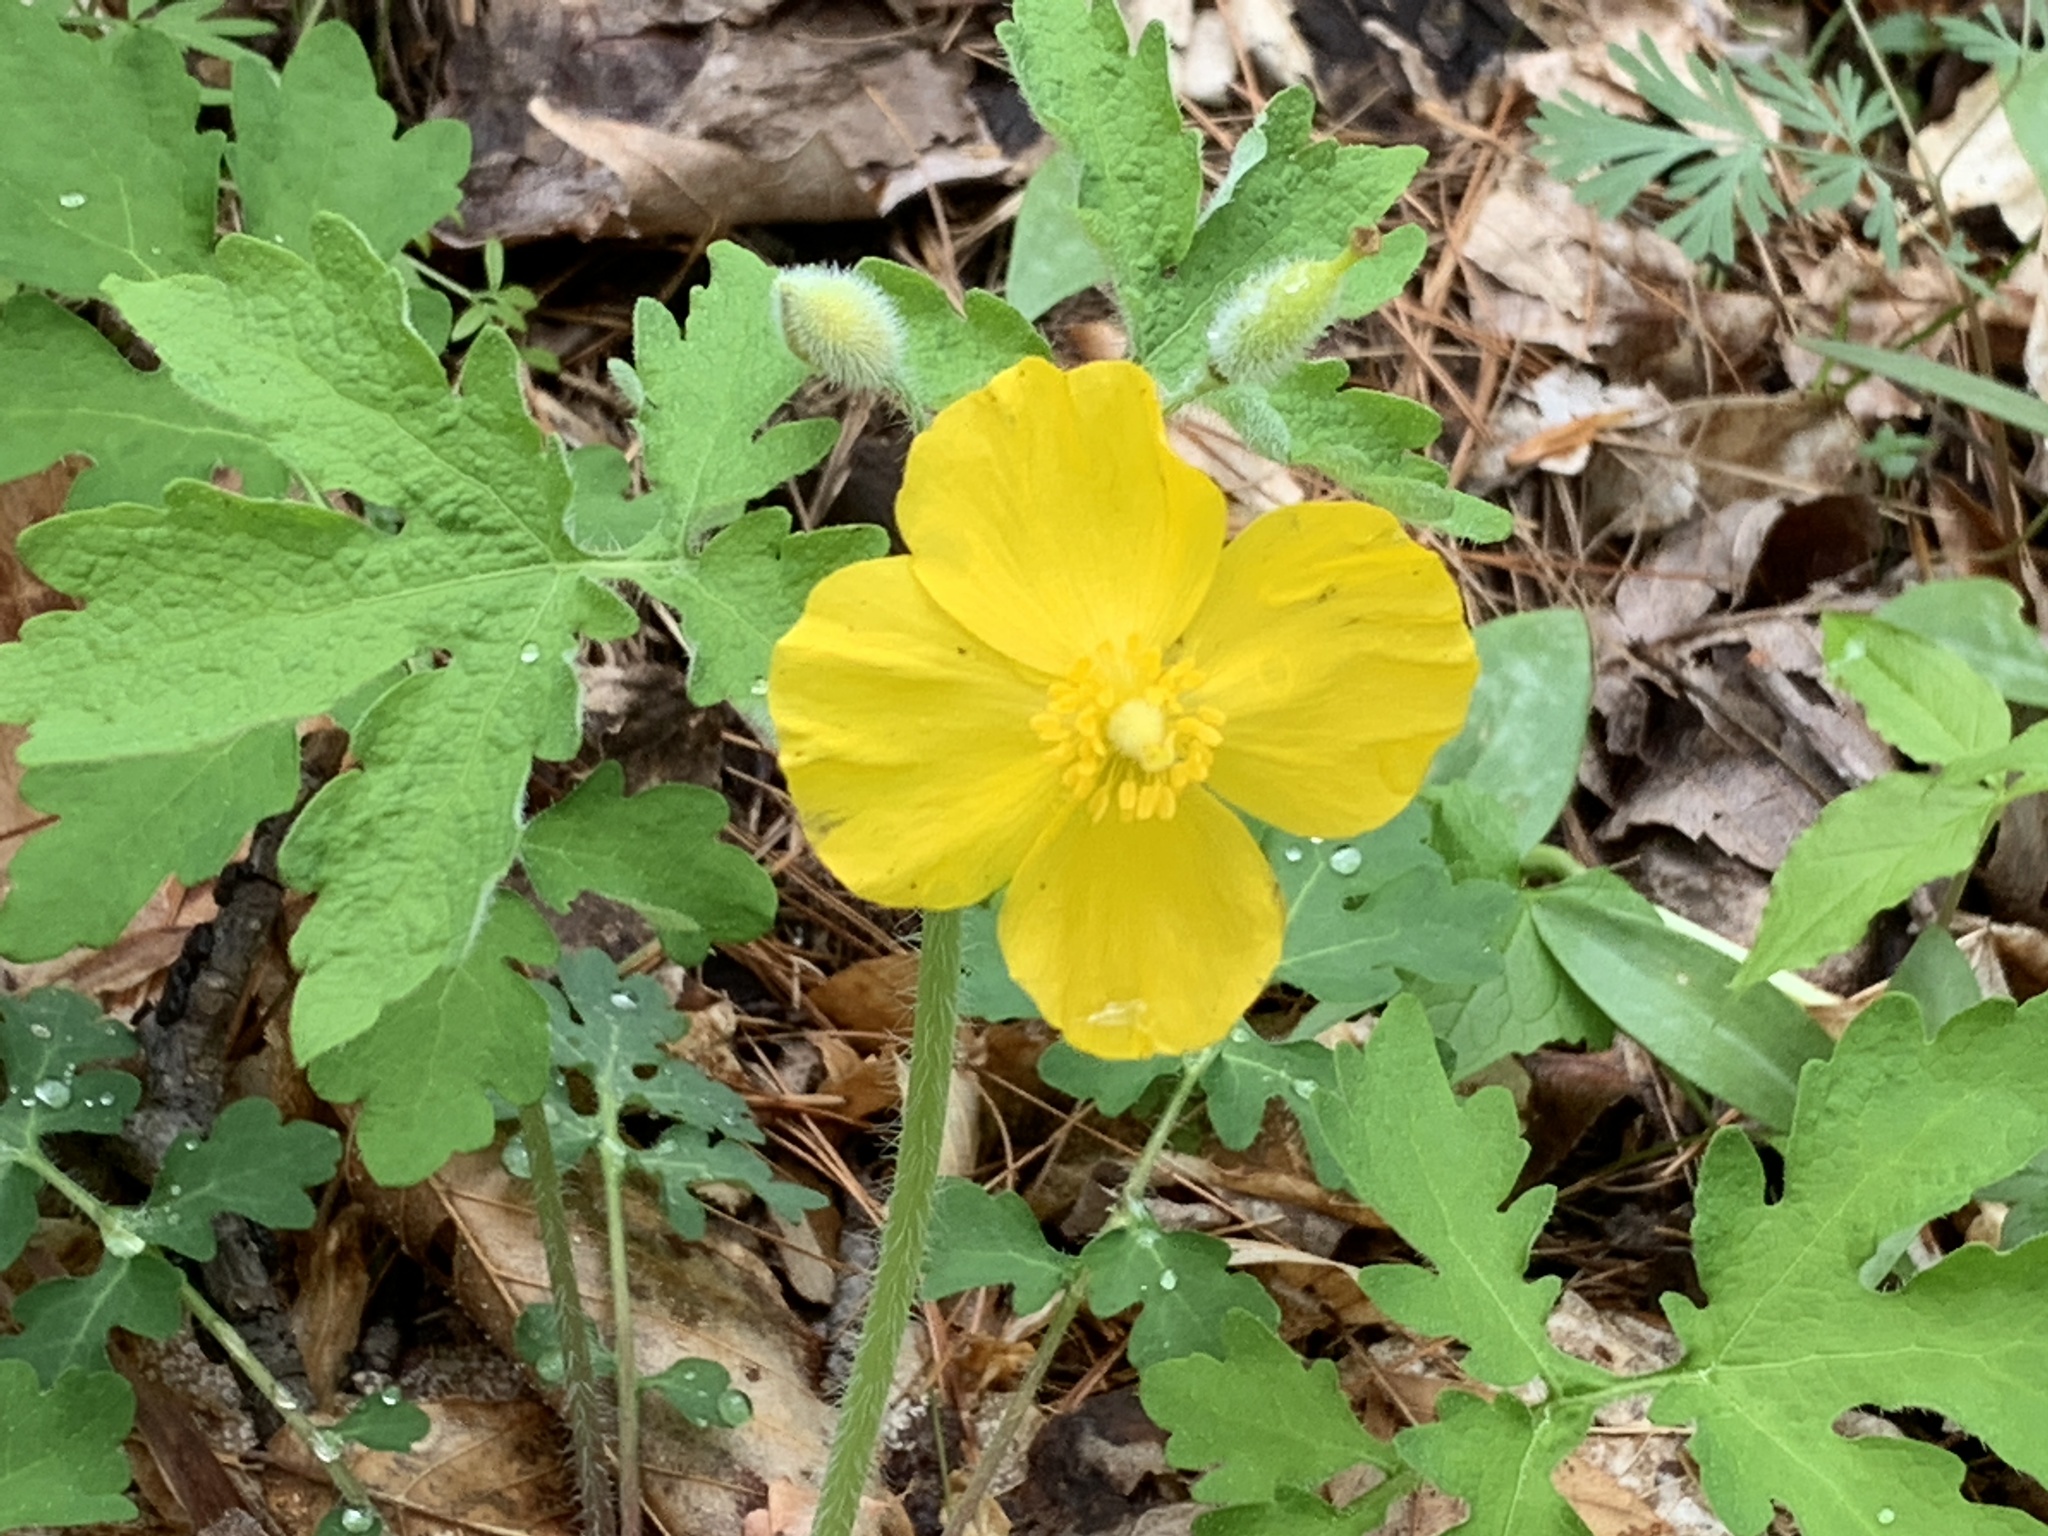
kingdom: Plantae
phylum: Tracheophyta
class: Magnoliopsida
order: Ranunculales
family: Papaveraceae
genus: Stylophorum
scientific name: Stylophorum diphyllum
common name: Celandine poppy
